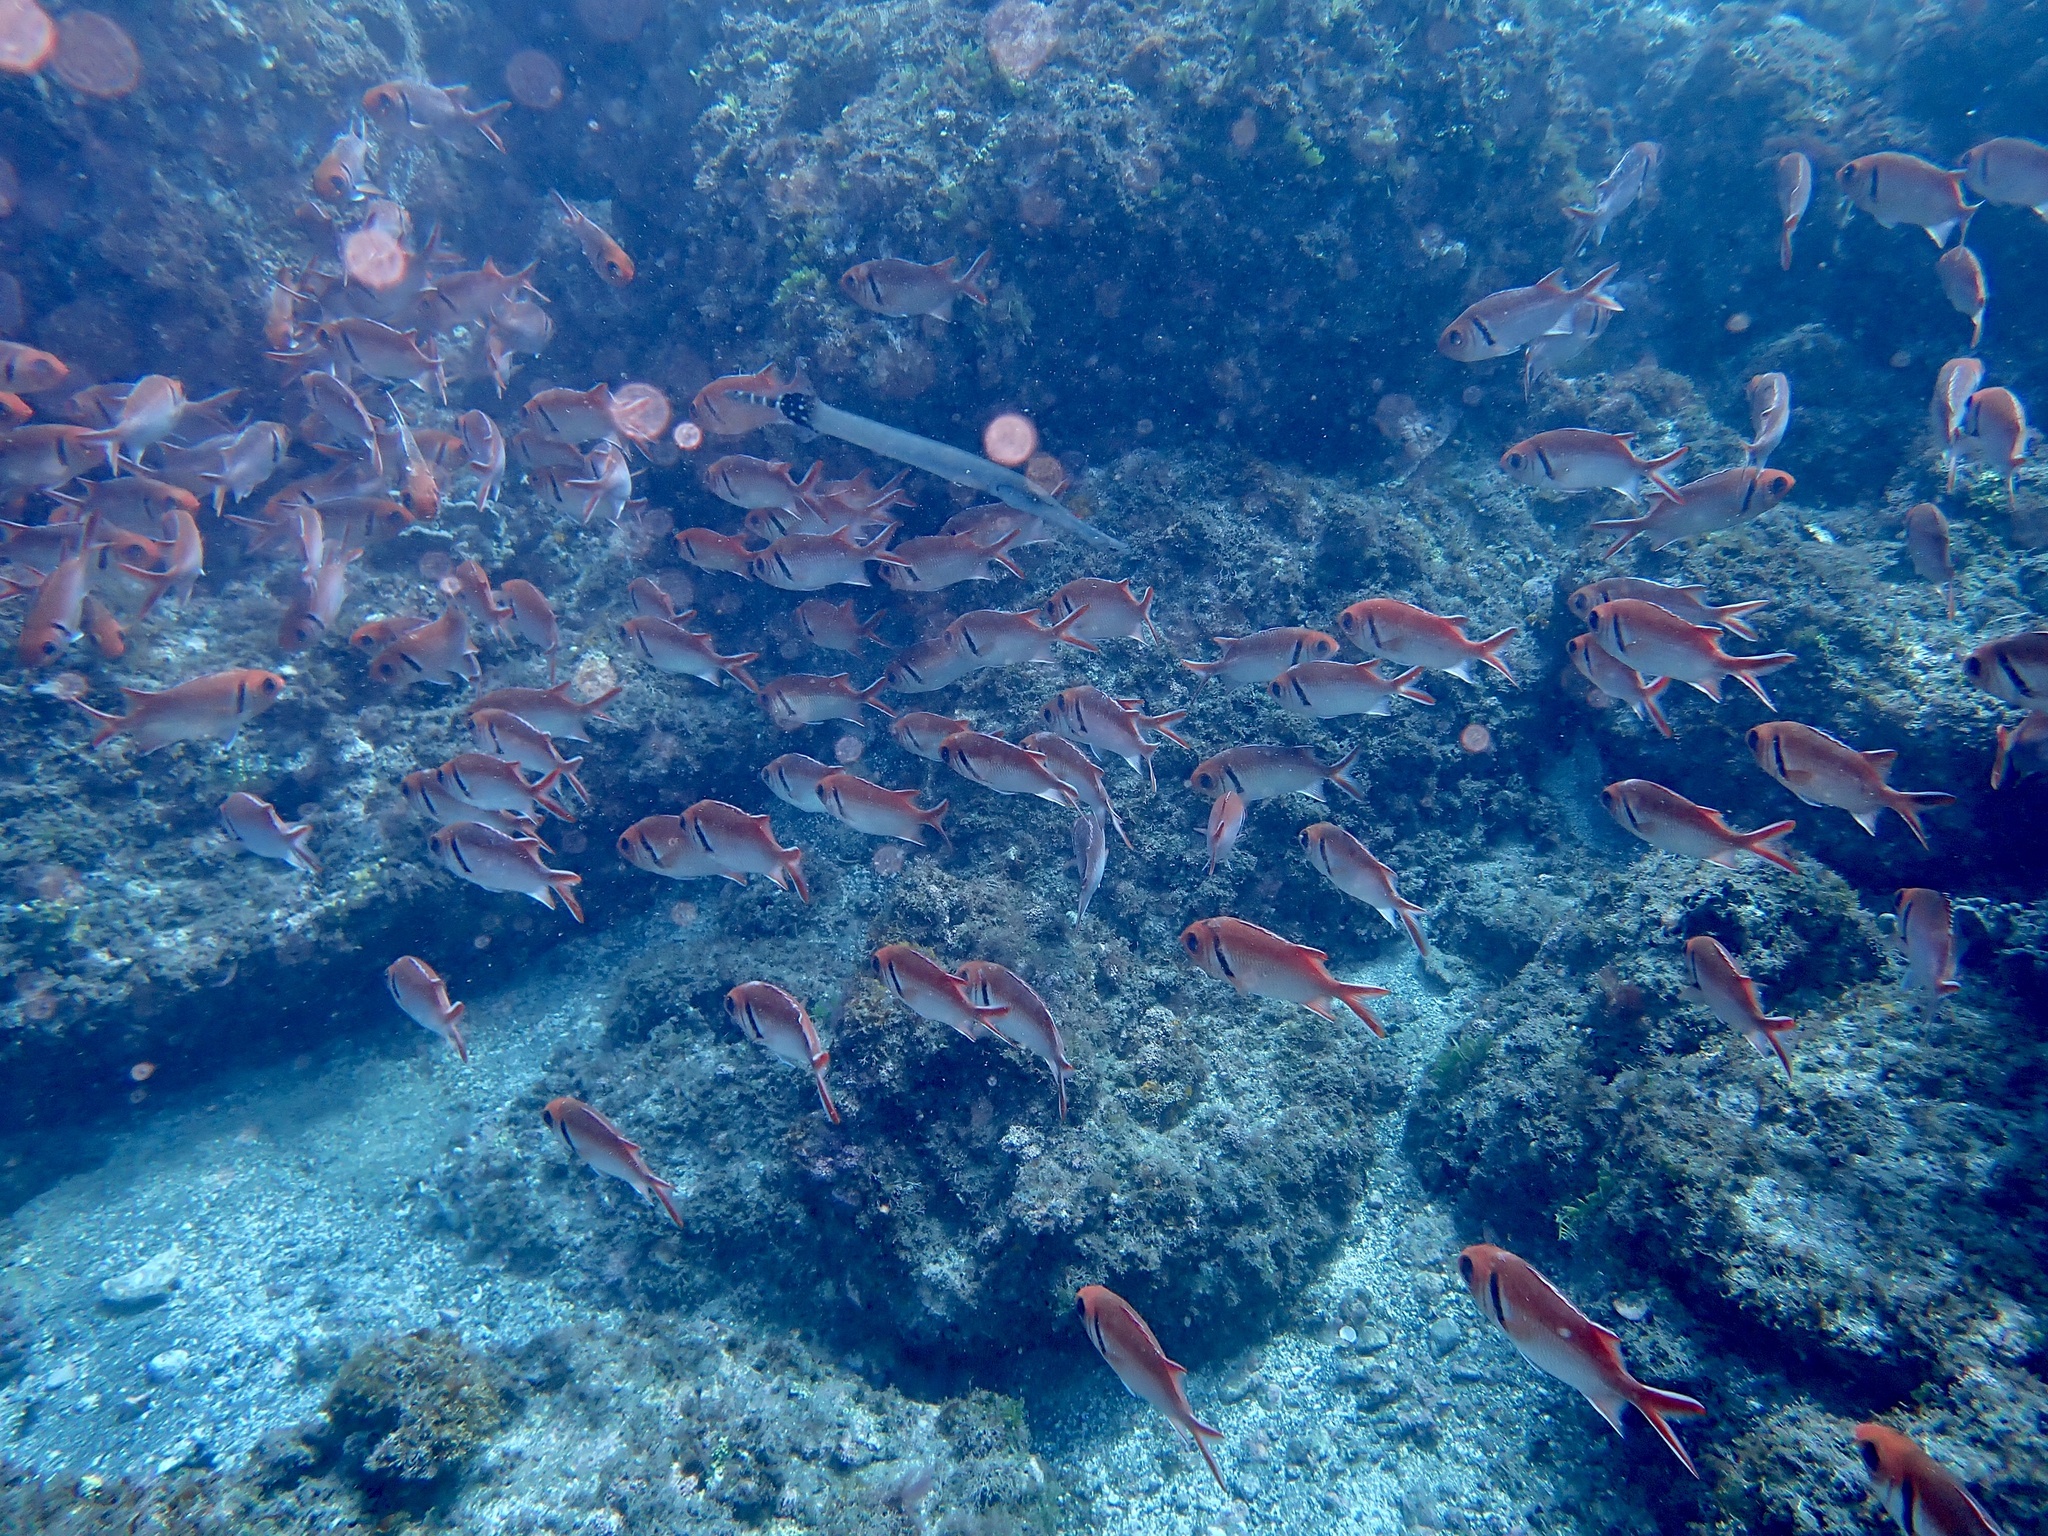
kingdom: Animalia
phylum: Chordata
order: Beryciformes
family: Holocentridae
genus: Myripristis
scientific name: Myripristis jacobus
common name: Blackbar soldierfish
